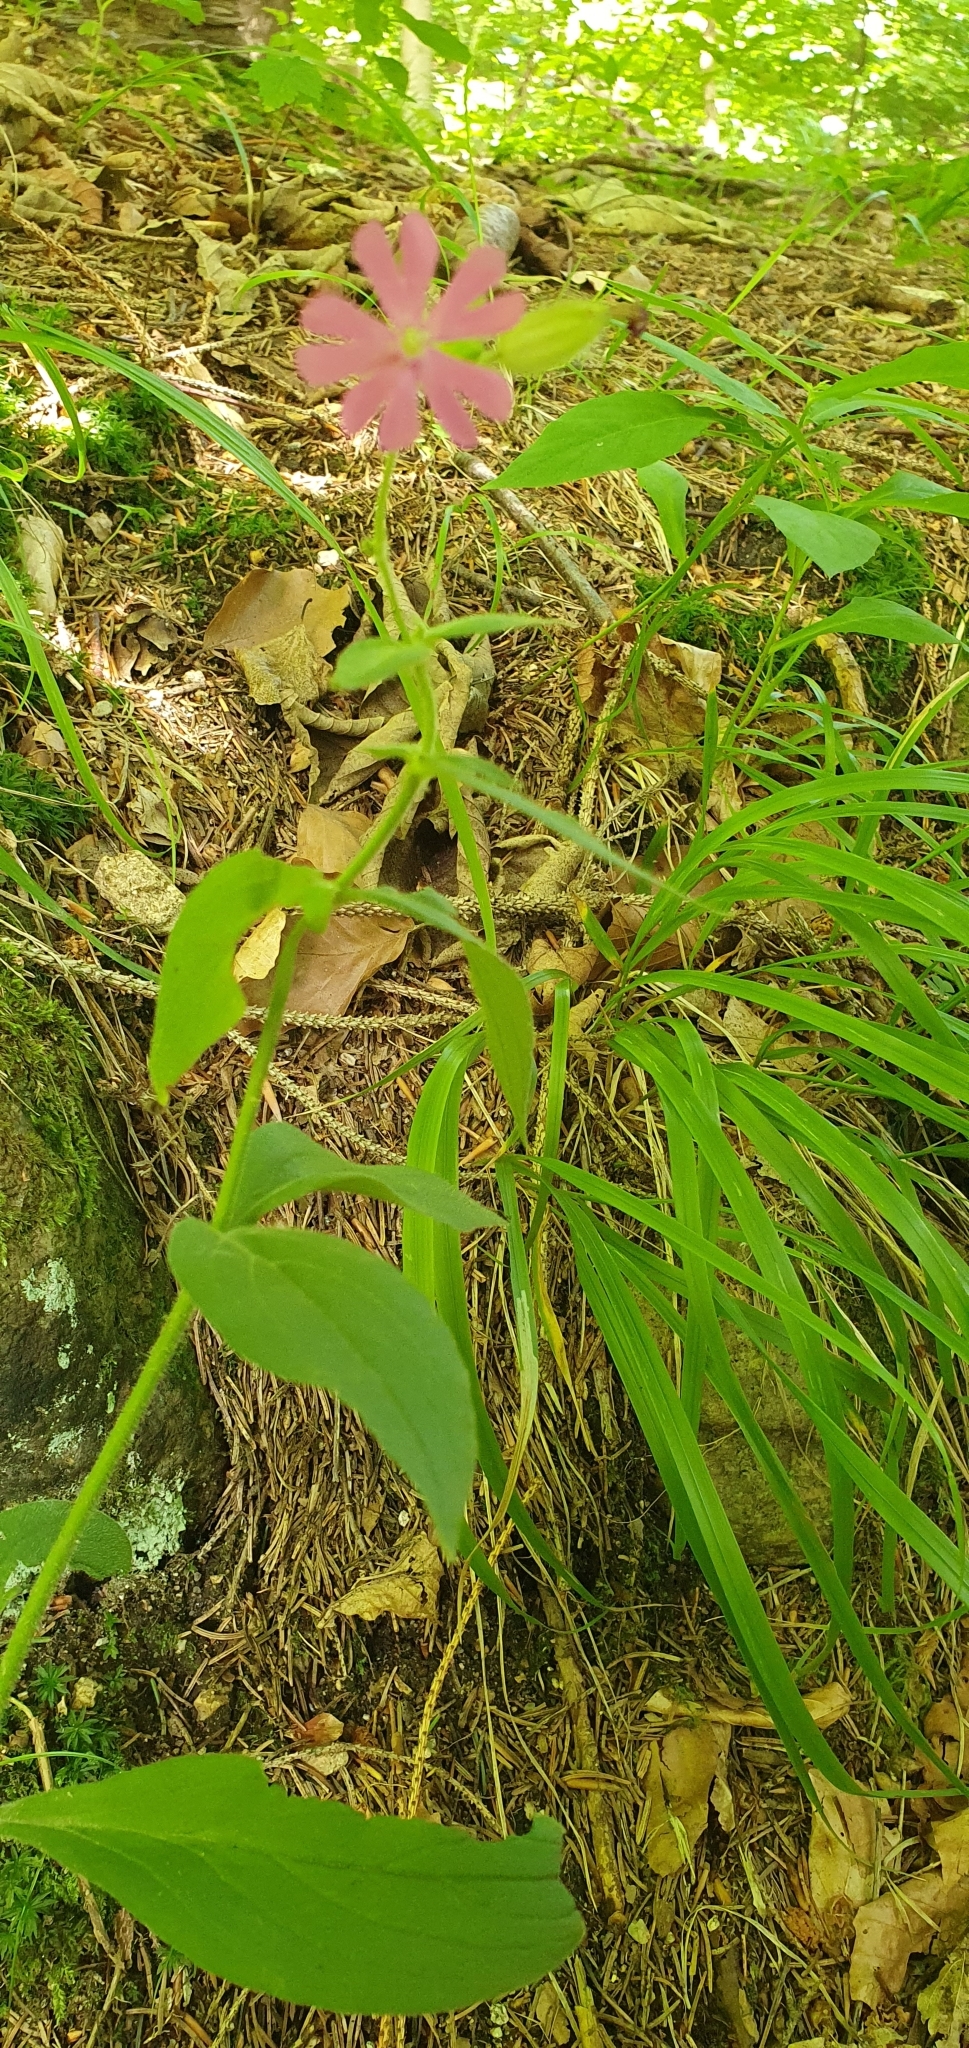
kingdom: Plantae
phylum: Tracheophyta
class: Magnoliopsida
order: Caryophyllales
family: Caryophyllaceae
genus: Silene
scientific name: Silene dioica
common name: Red campion
